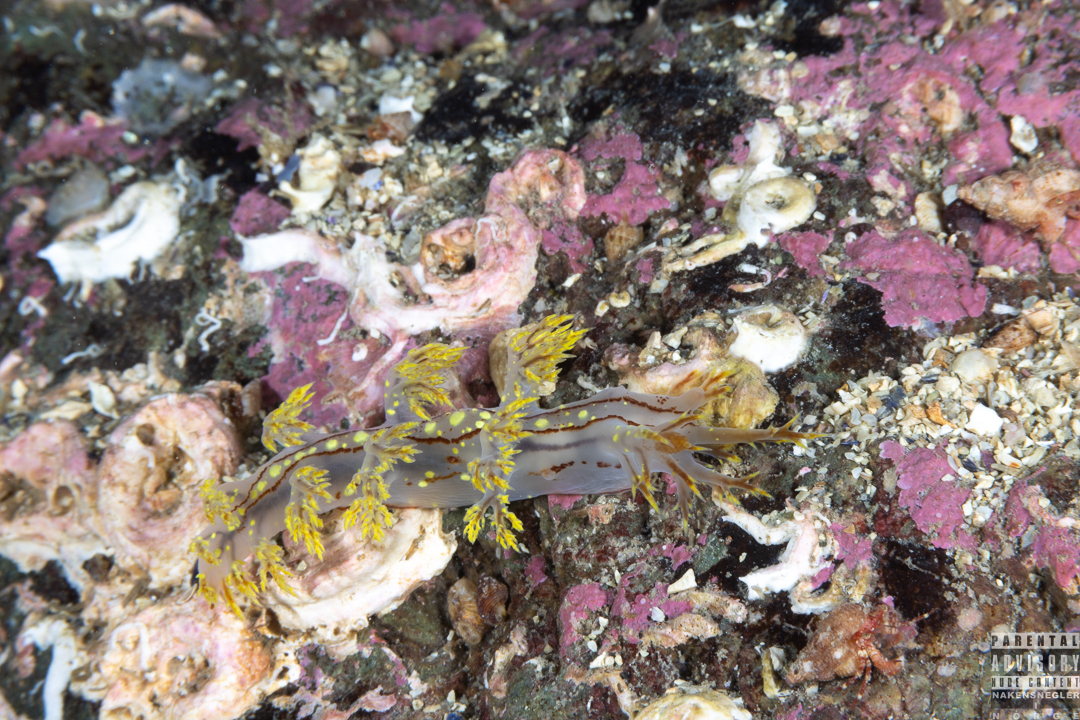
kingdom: Animalia
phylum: Mollusca
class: Gastropoda
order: Nudibranchia
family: Dendronotidae
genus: Dendronotus
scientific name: Dendronotus yrjargul
